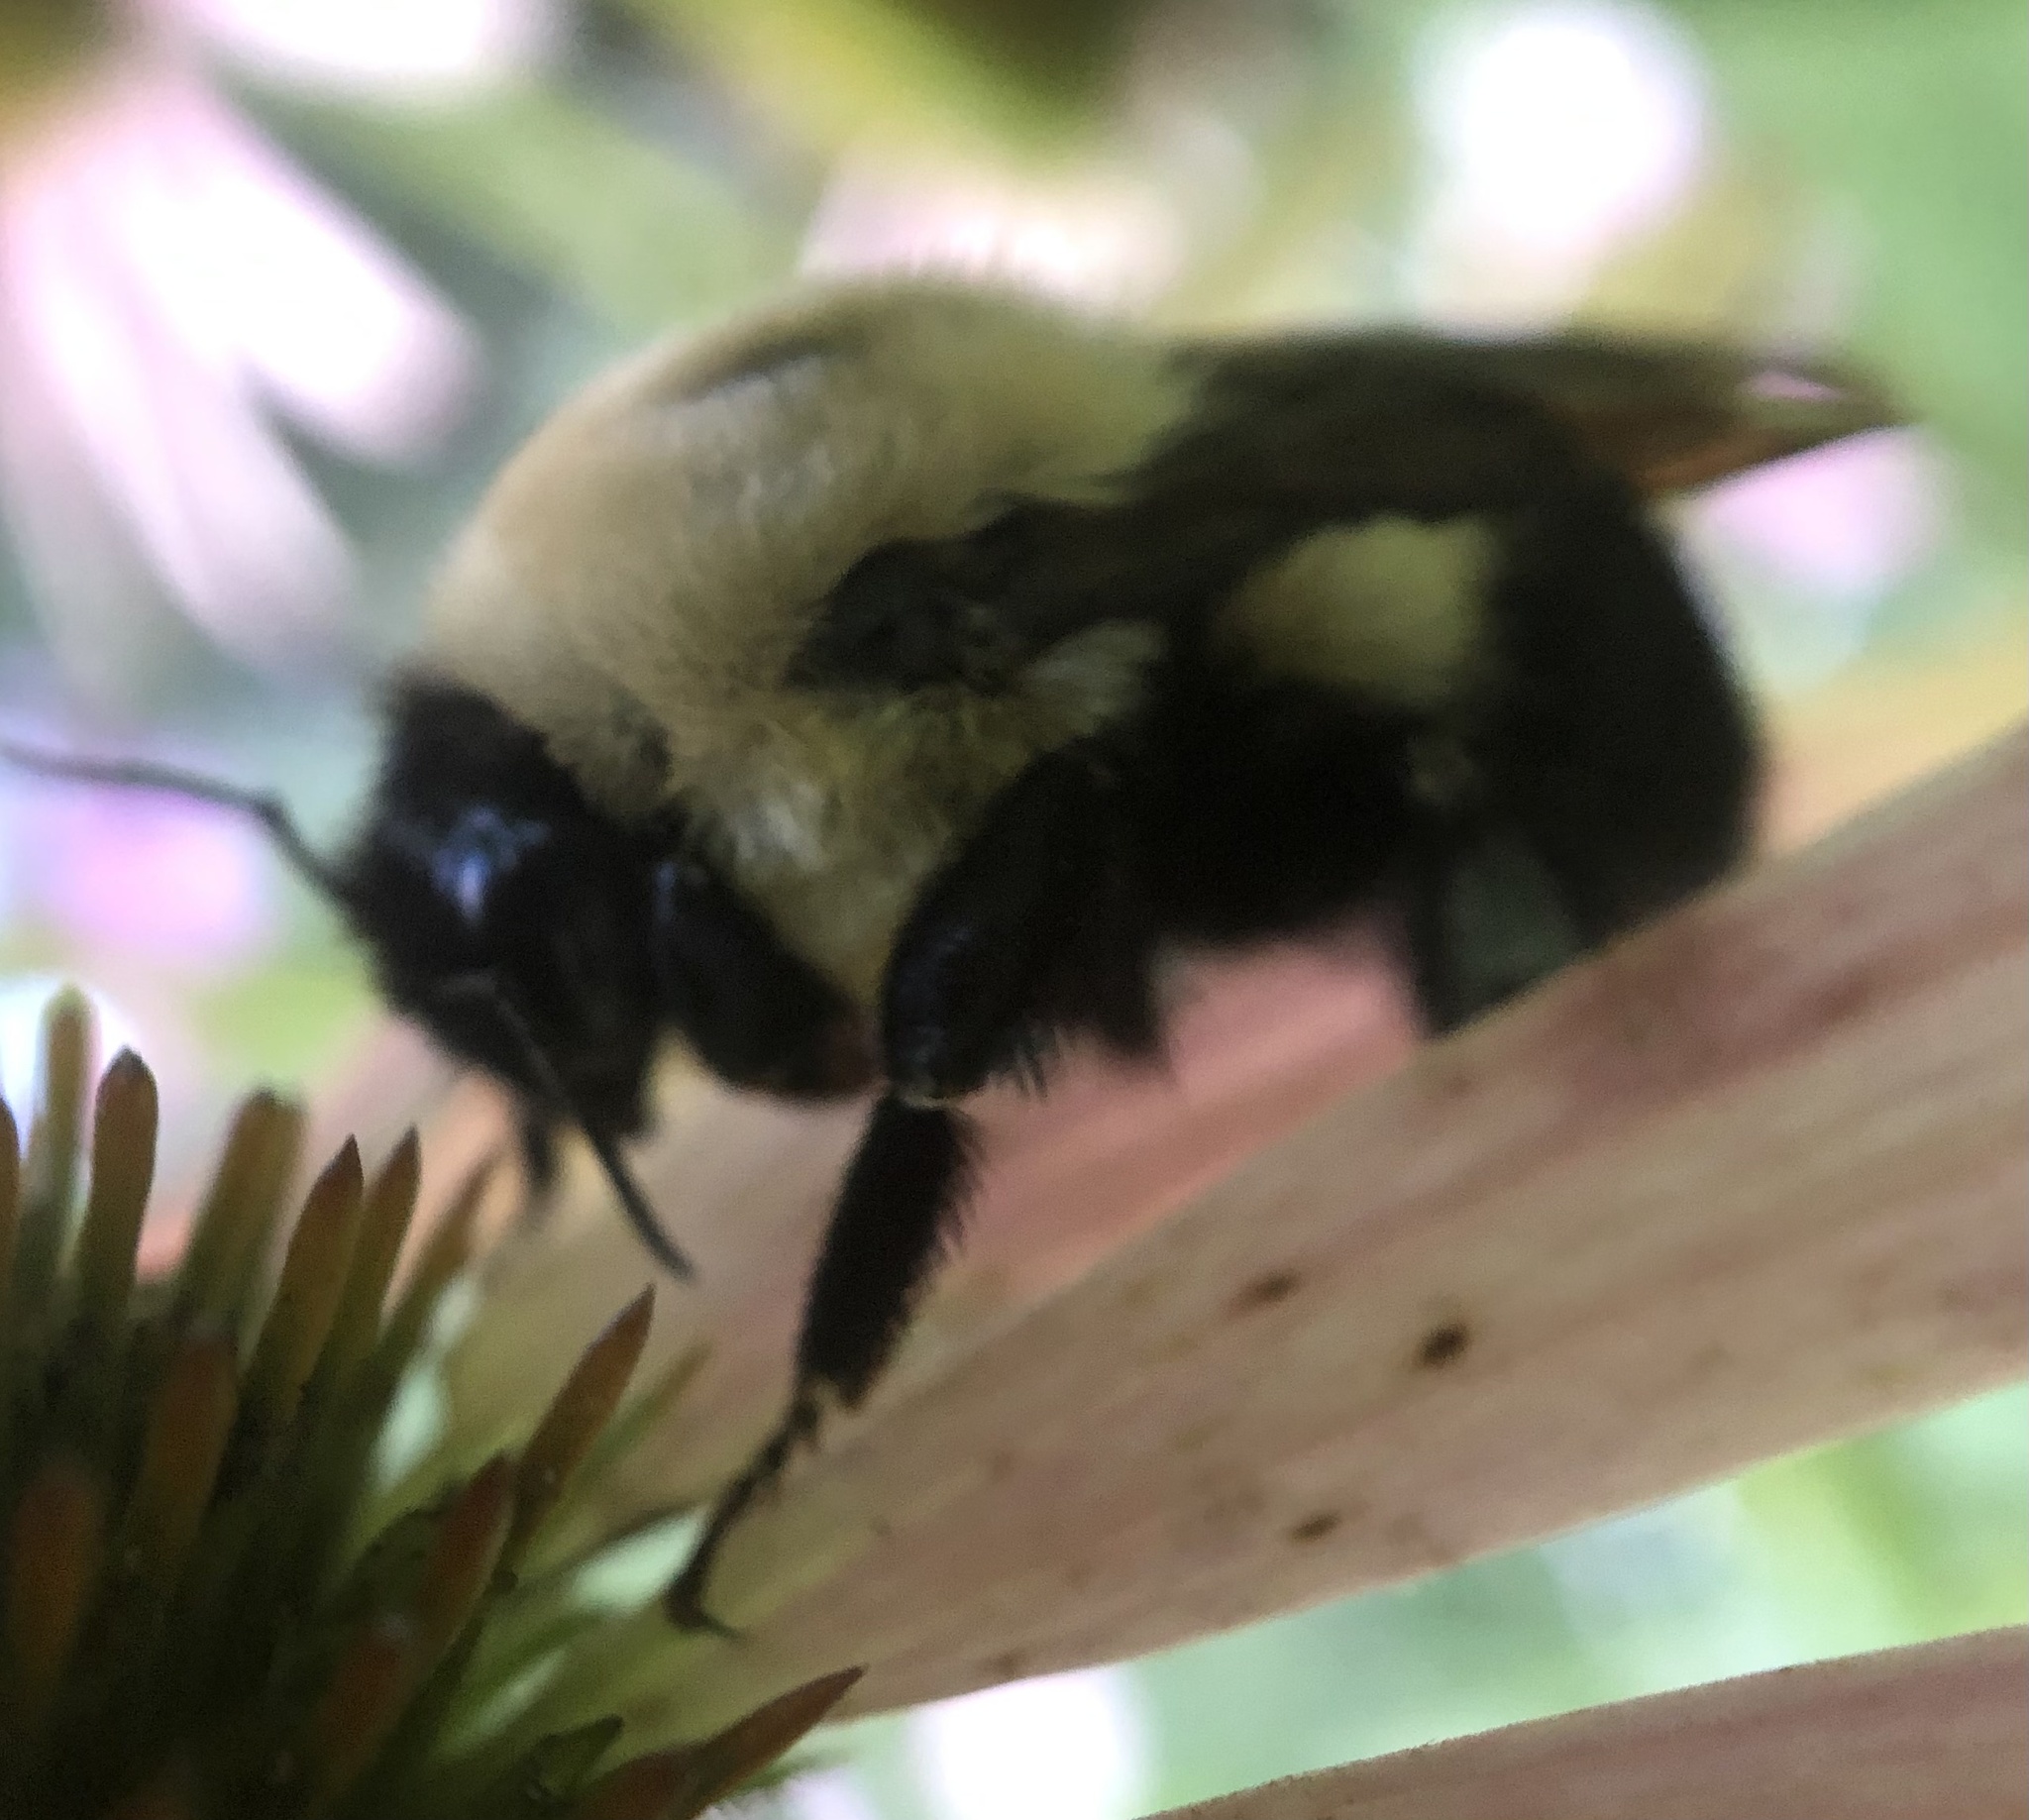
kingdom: Animalia
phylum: Arthropoda
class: Insecta
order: Hymenoptera
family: Apidae
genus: Bombus
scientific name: Bombus griseocollis
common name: Brown-belted bumble bee
